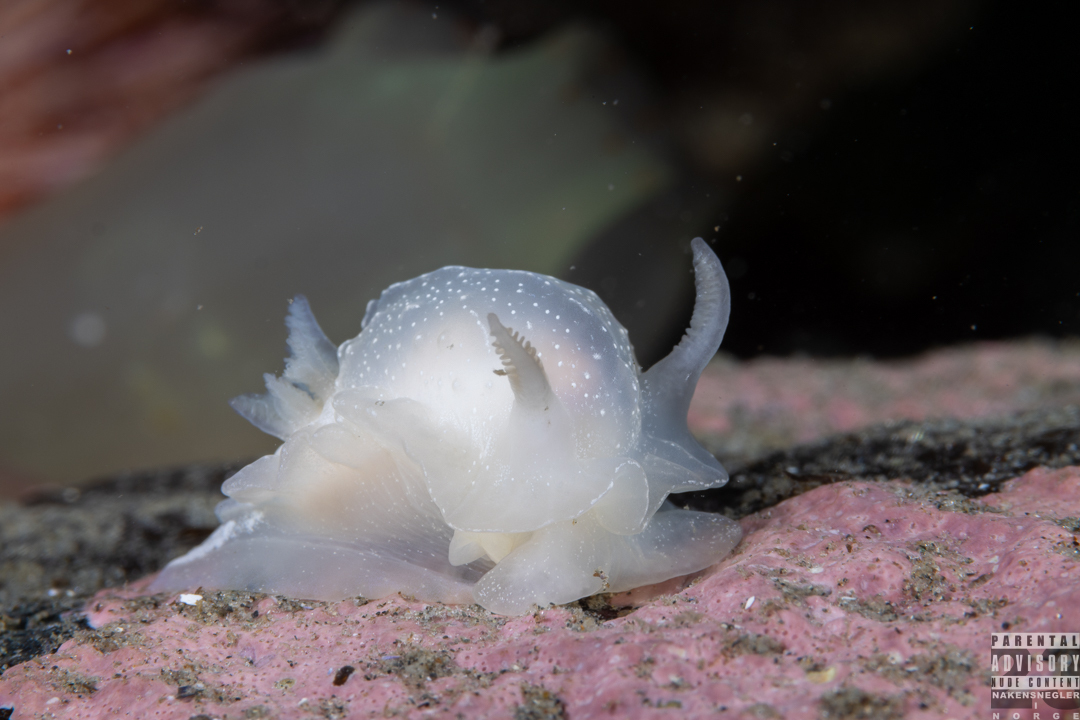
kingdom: Animalia
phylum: Mollusca
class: Gastropoda
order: Nudibranchia
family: Goniodorididae
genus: Okenia
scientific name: Okenia
